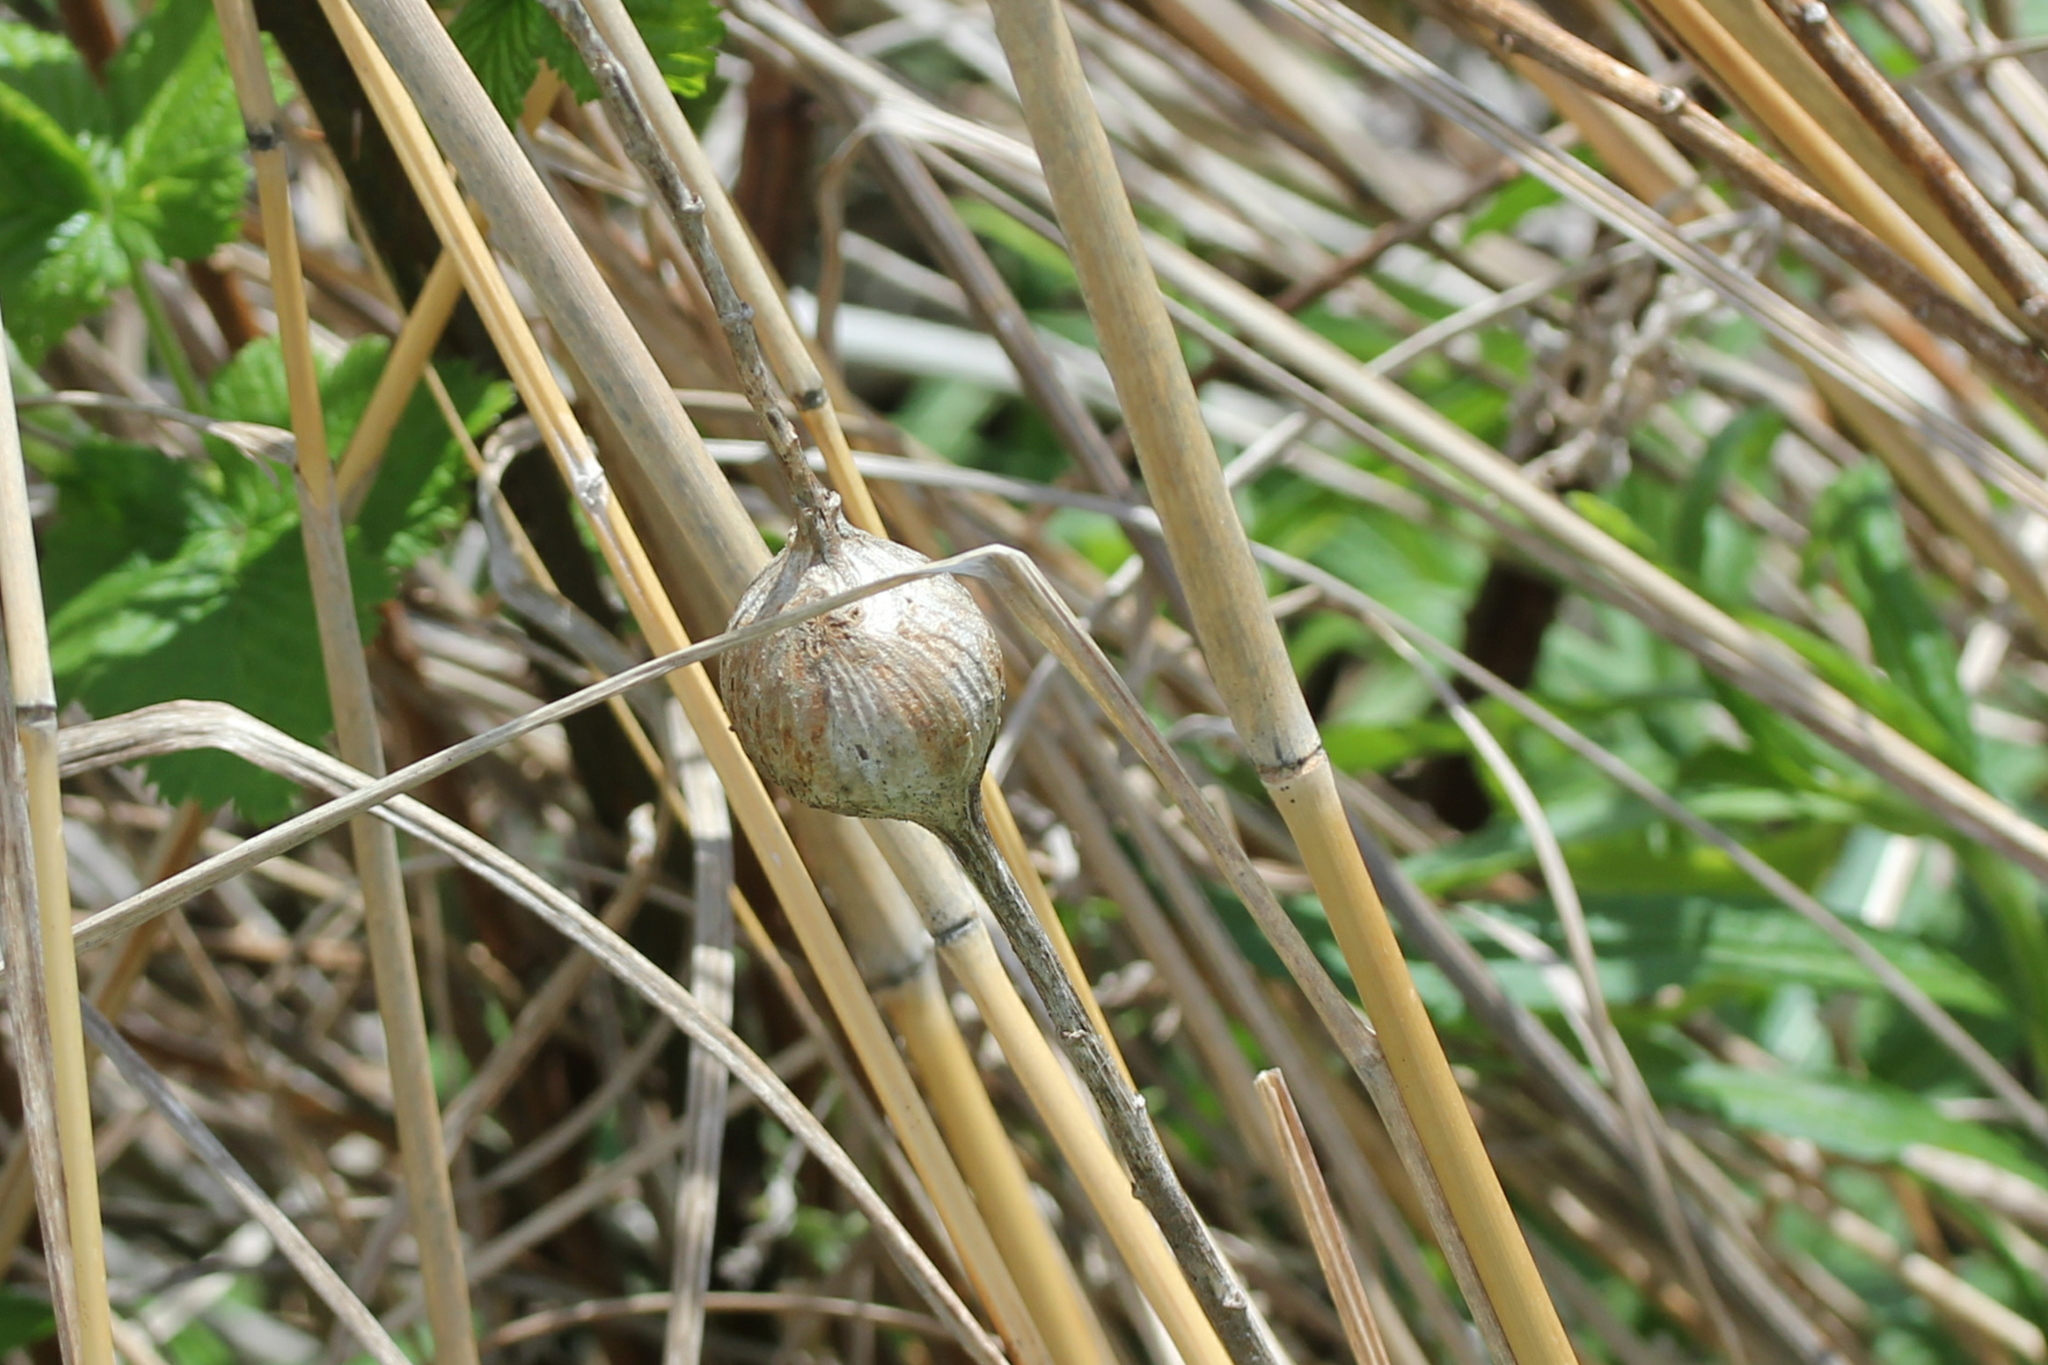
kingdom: Animalia
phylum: Arthropoda
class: Insecta
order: Diptera
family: Tephritidae
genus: Eurosta
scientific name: Eurosta solidaginis
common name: Goldenrod gall fly
